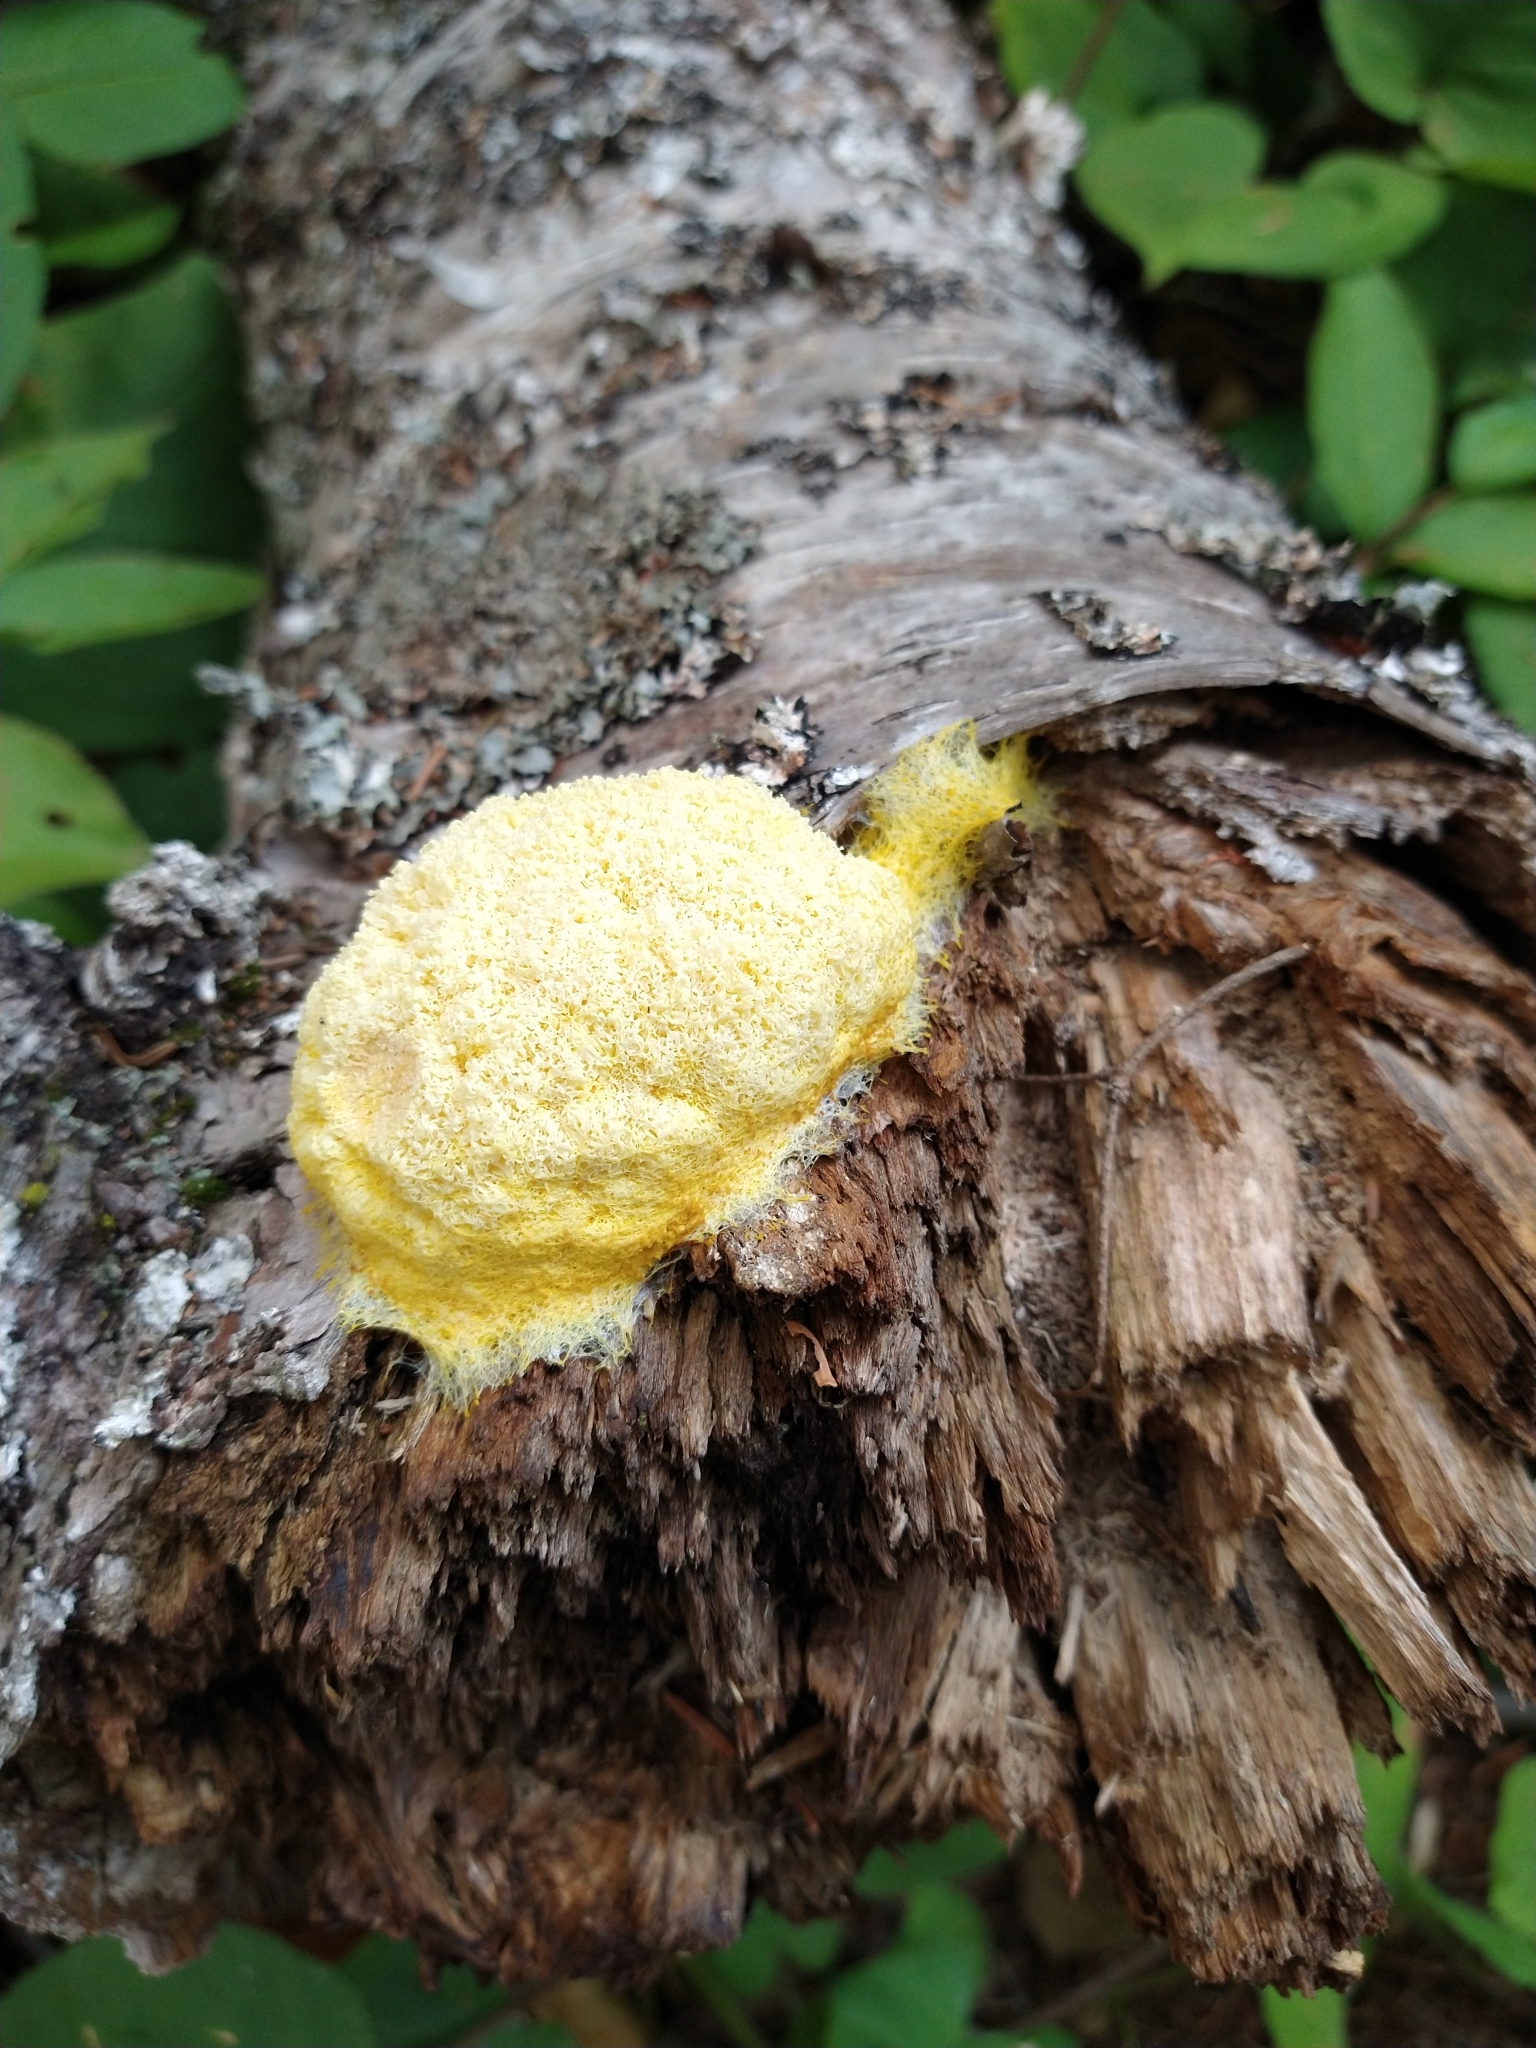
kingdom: Protozoa
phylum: Mycetozoa
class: Myxomycetes
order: Physarales
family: Physaraceae
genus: Fuligo
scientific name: Fuligo septica
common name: Dog vomit slime mold
